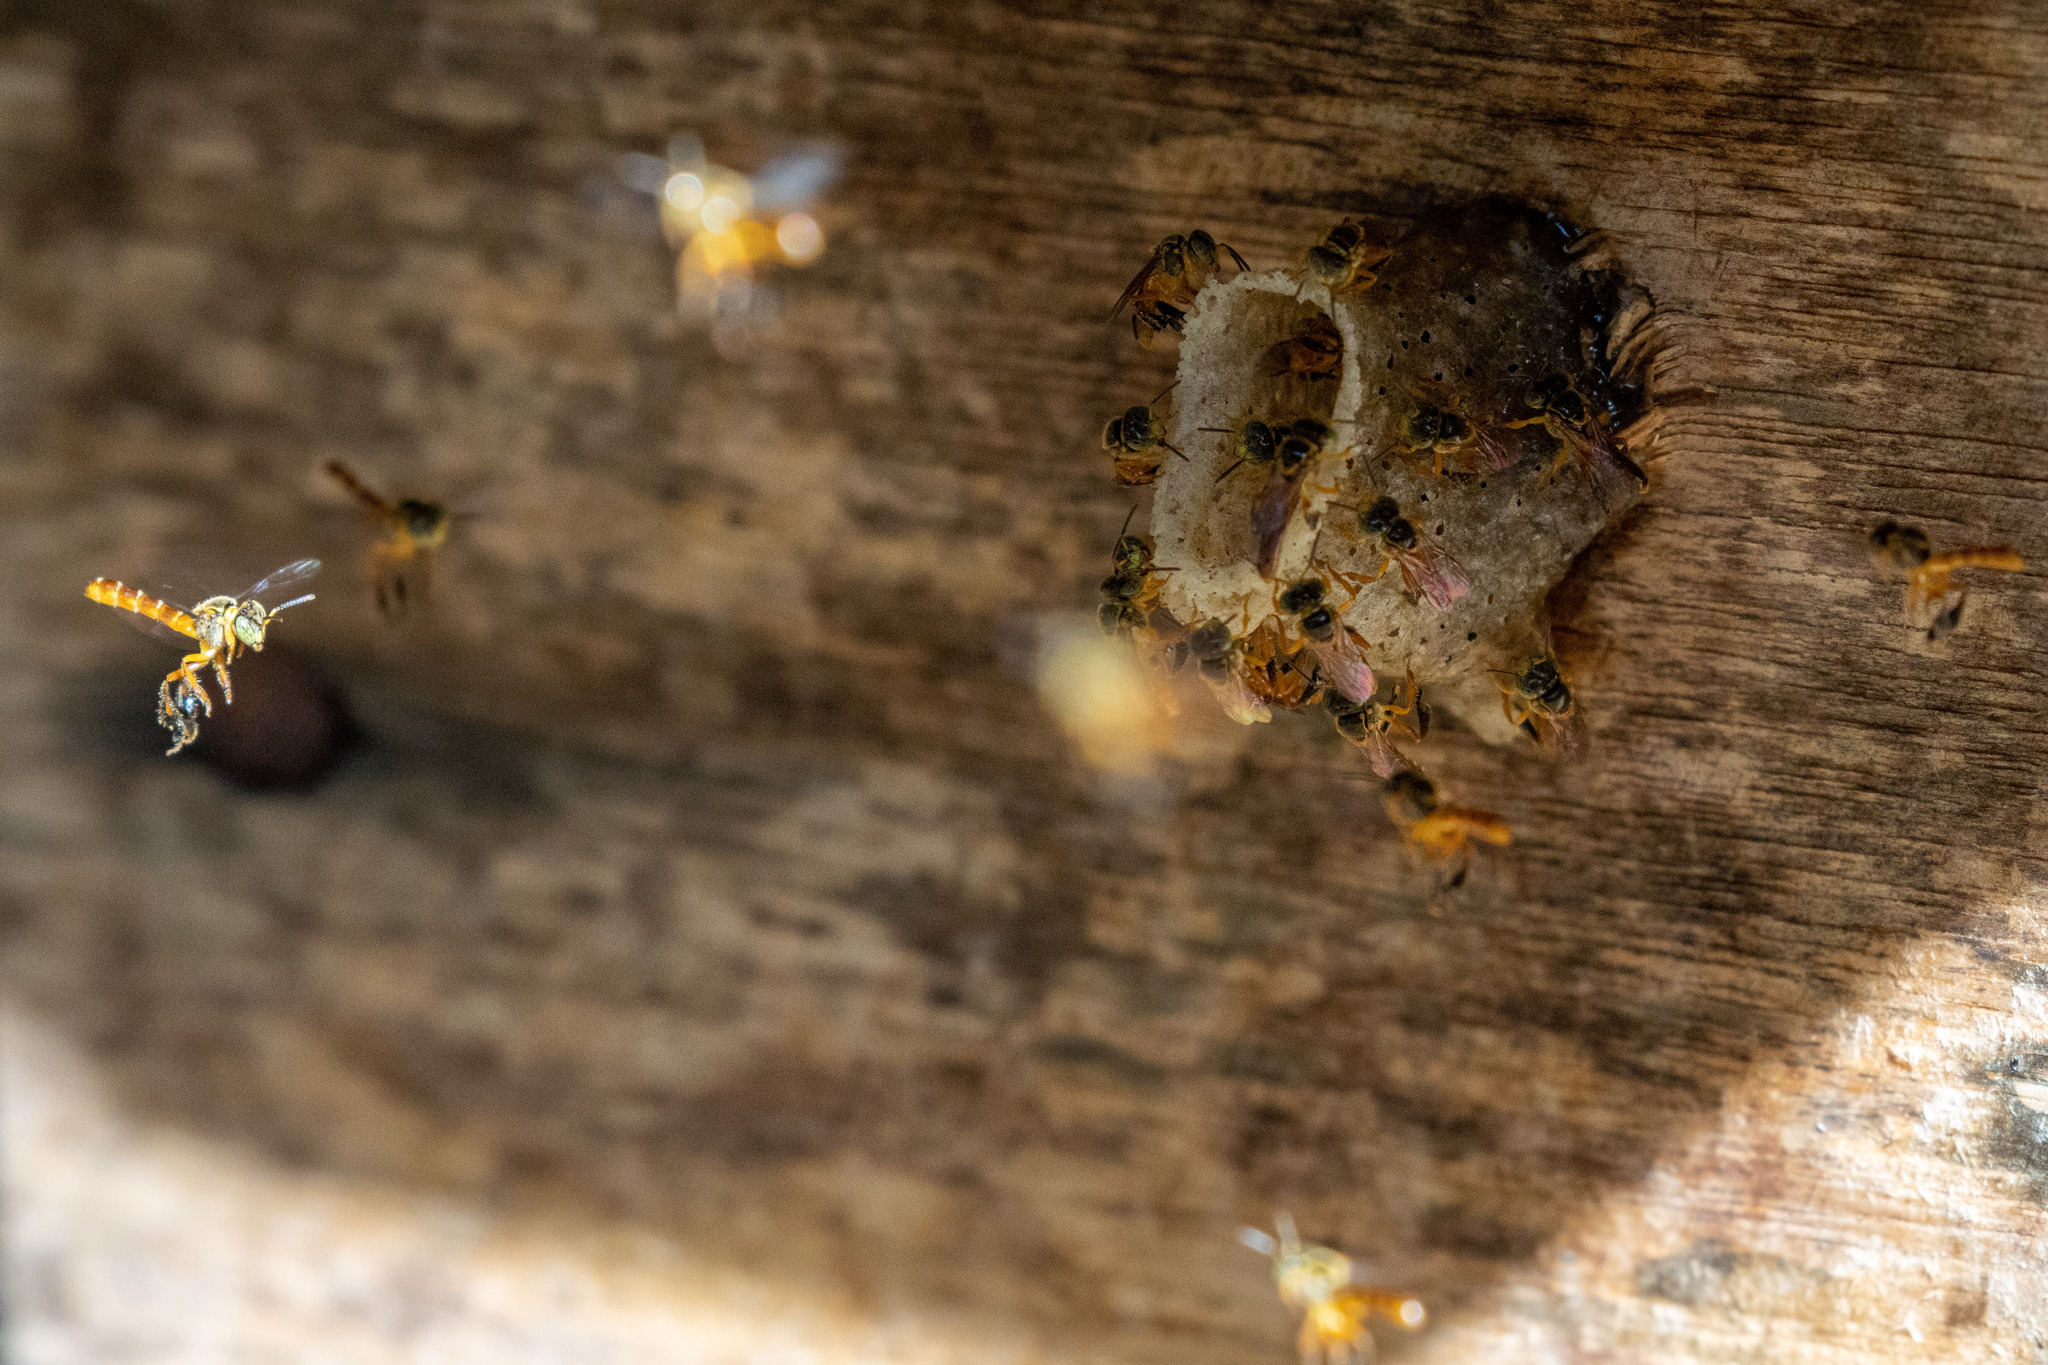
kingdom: Animalia
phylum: Arthropoda
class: Insecta
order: Hymenoptera
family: Apidae
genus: Tetragonisca
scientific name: Tetragonisca angustula
